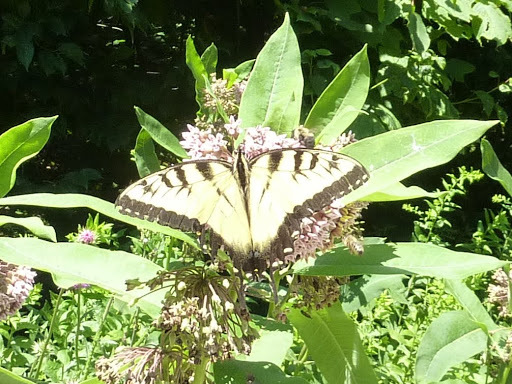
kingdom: Animalia
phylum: Arthropoda
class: Insecta
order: Lepidoptera
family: Papilionidae
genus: Papilio
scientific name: Papilio glaucus
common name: Tiger swallowtail
